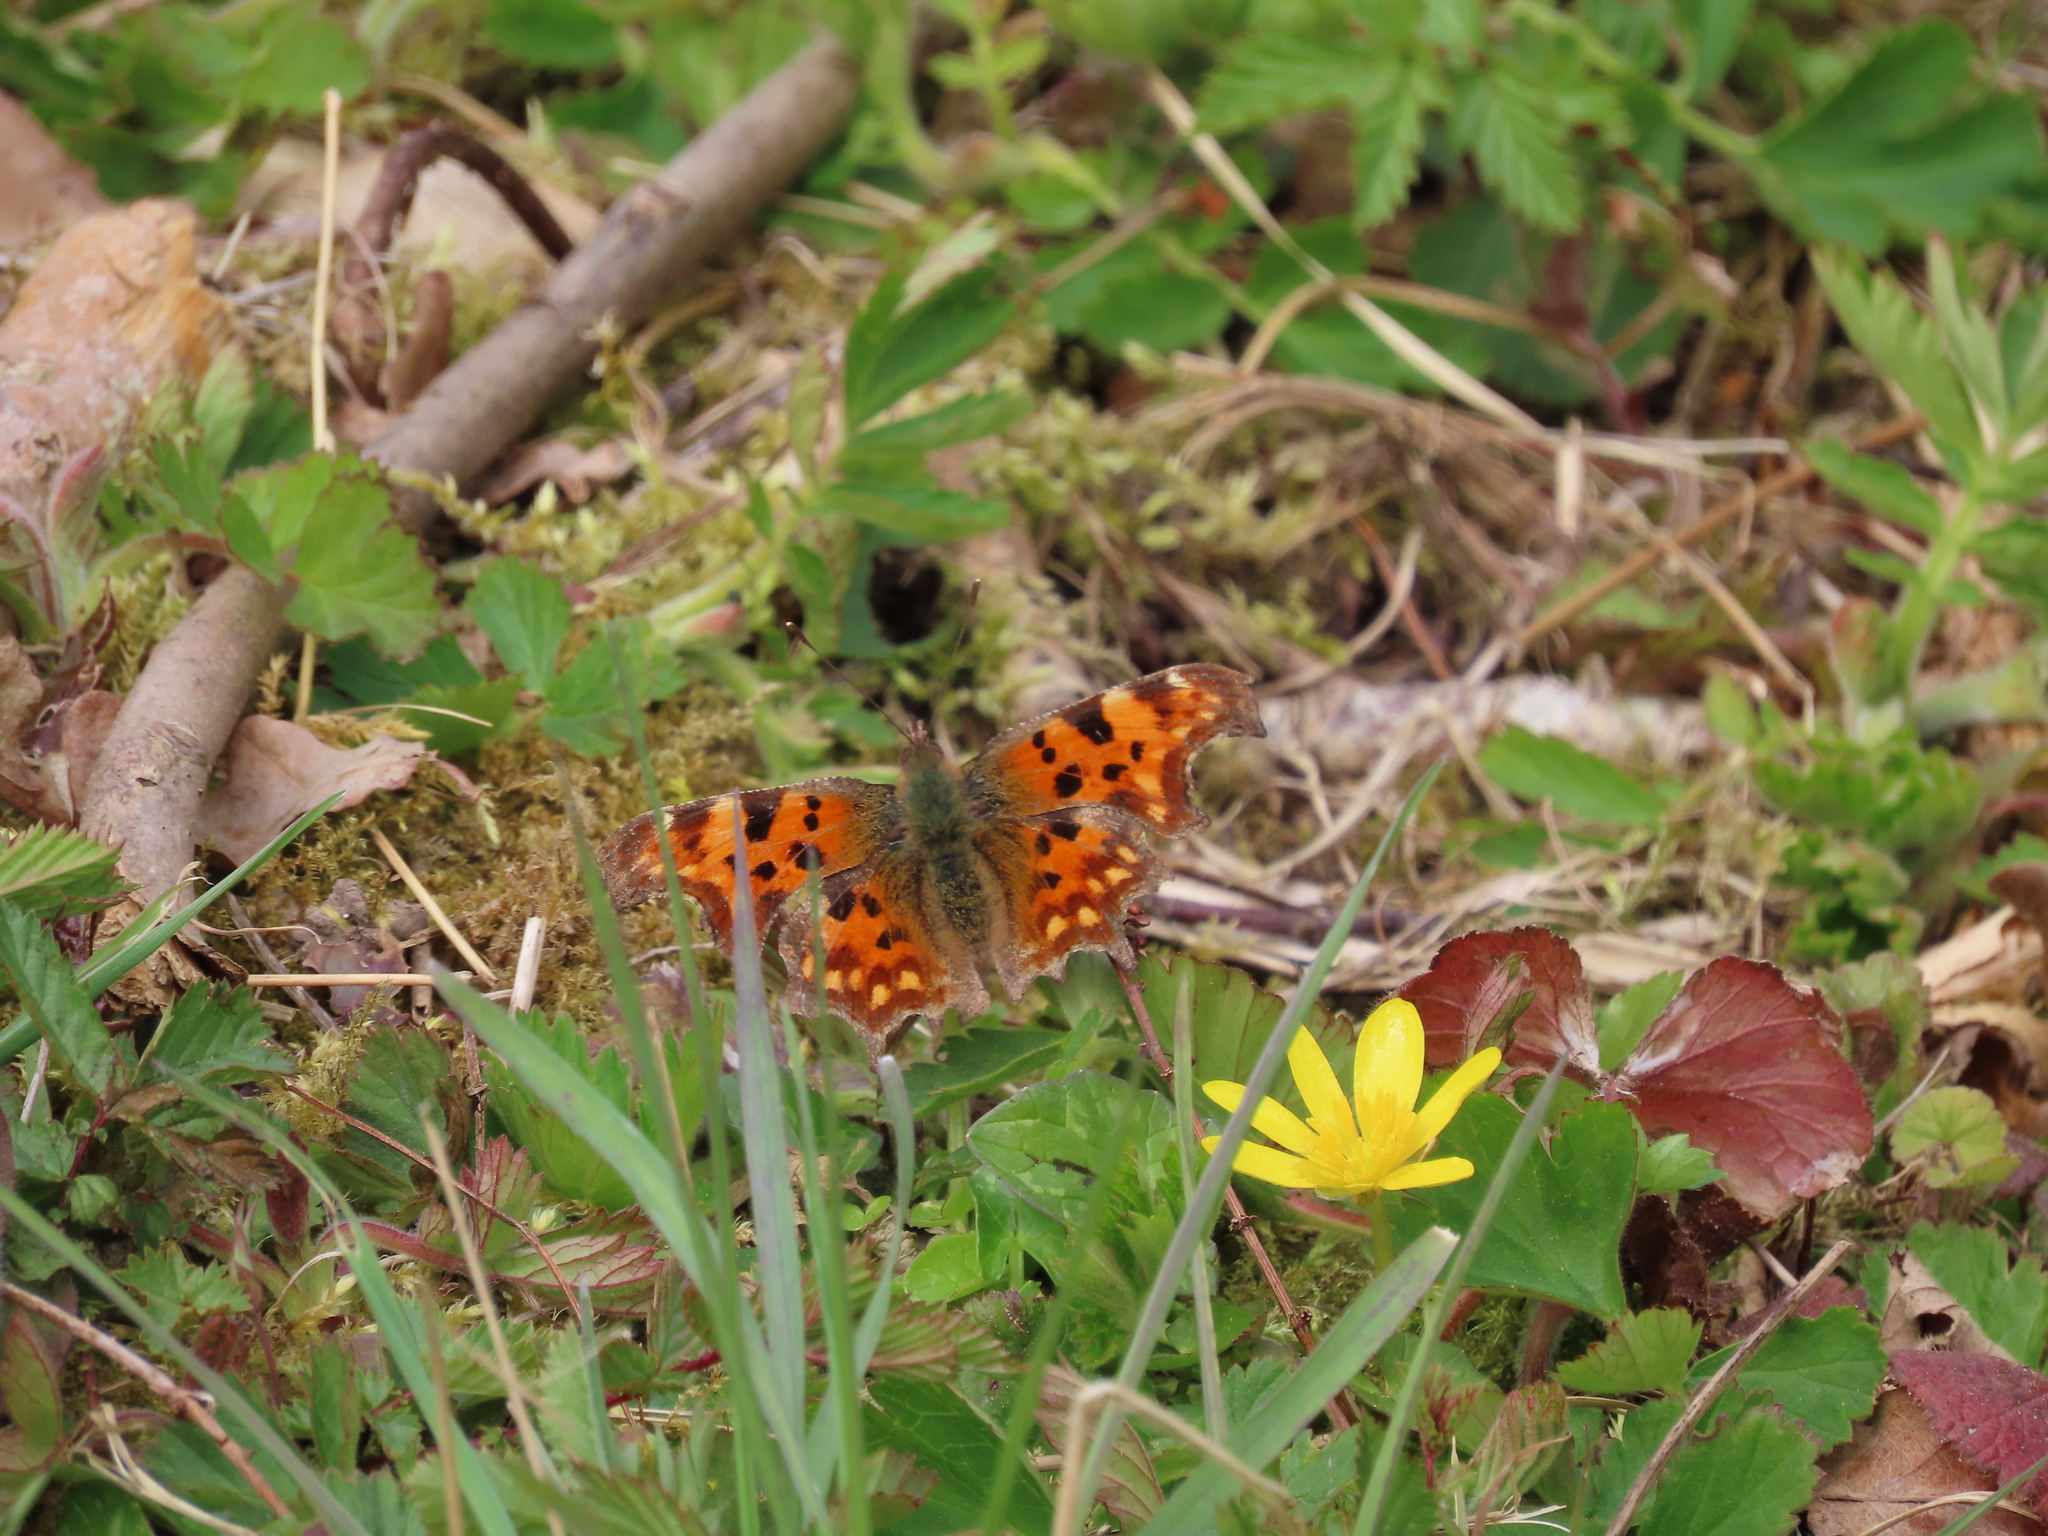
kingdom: Animalia
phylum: Arthropoda
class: Insecta
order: Lepidoptera
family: Nymphalidae
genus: Polygonia
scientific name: Polygonia c-album
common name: Comma
